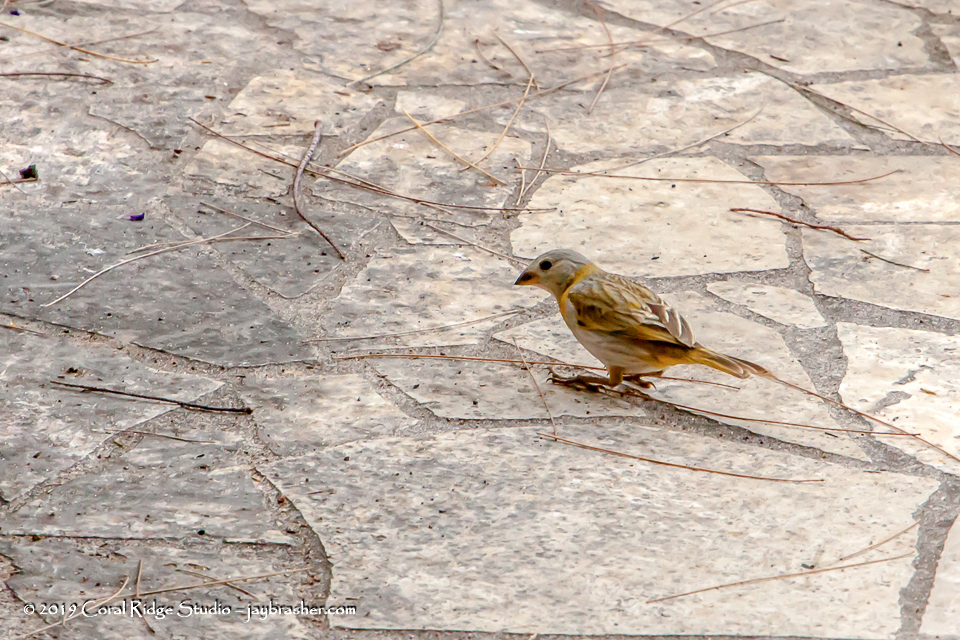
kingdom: Animalia
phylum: Chordata
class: Aves
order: Passeriformes
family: Thraupidae
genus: Sicalis
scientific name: Sicalis flaveola
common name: Saffron finch
